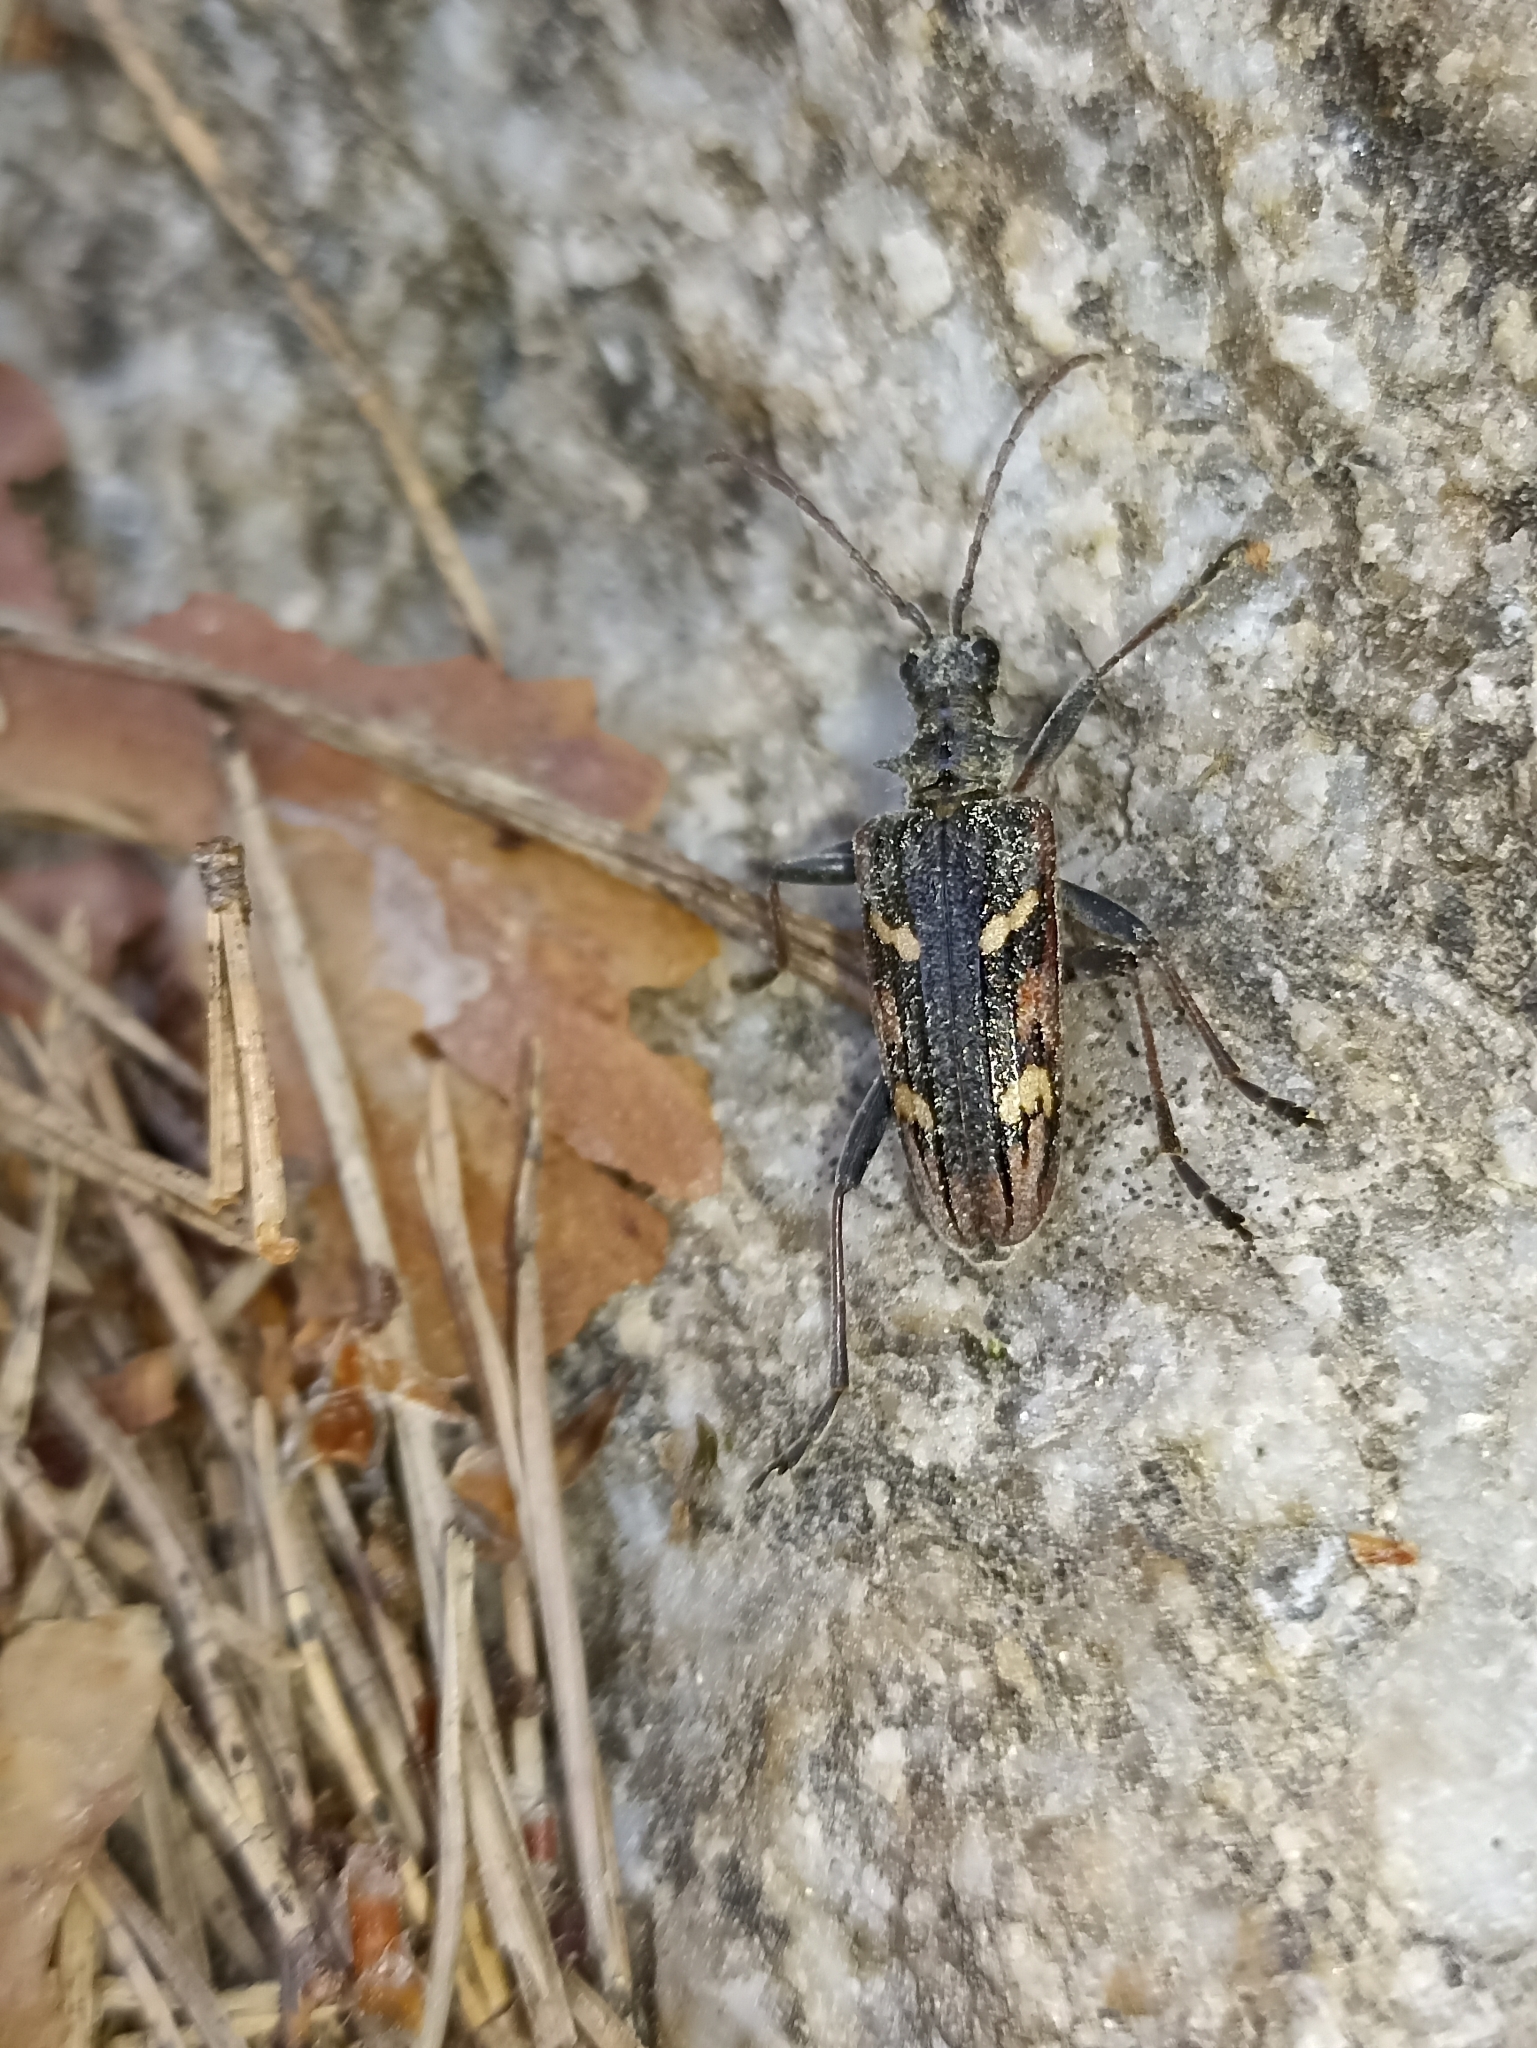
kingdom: Animalia
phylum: Arthropoda
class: Insecta
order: Coleoptera
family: Cerambycidae
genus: Rhagium
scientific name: Rhagium bifasciatum
